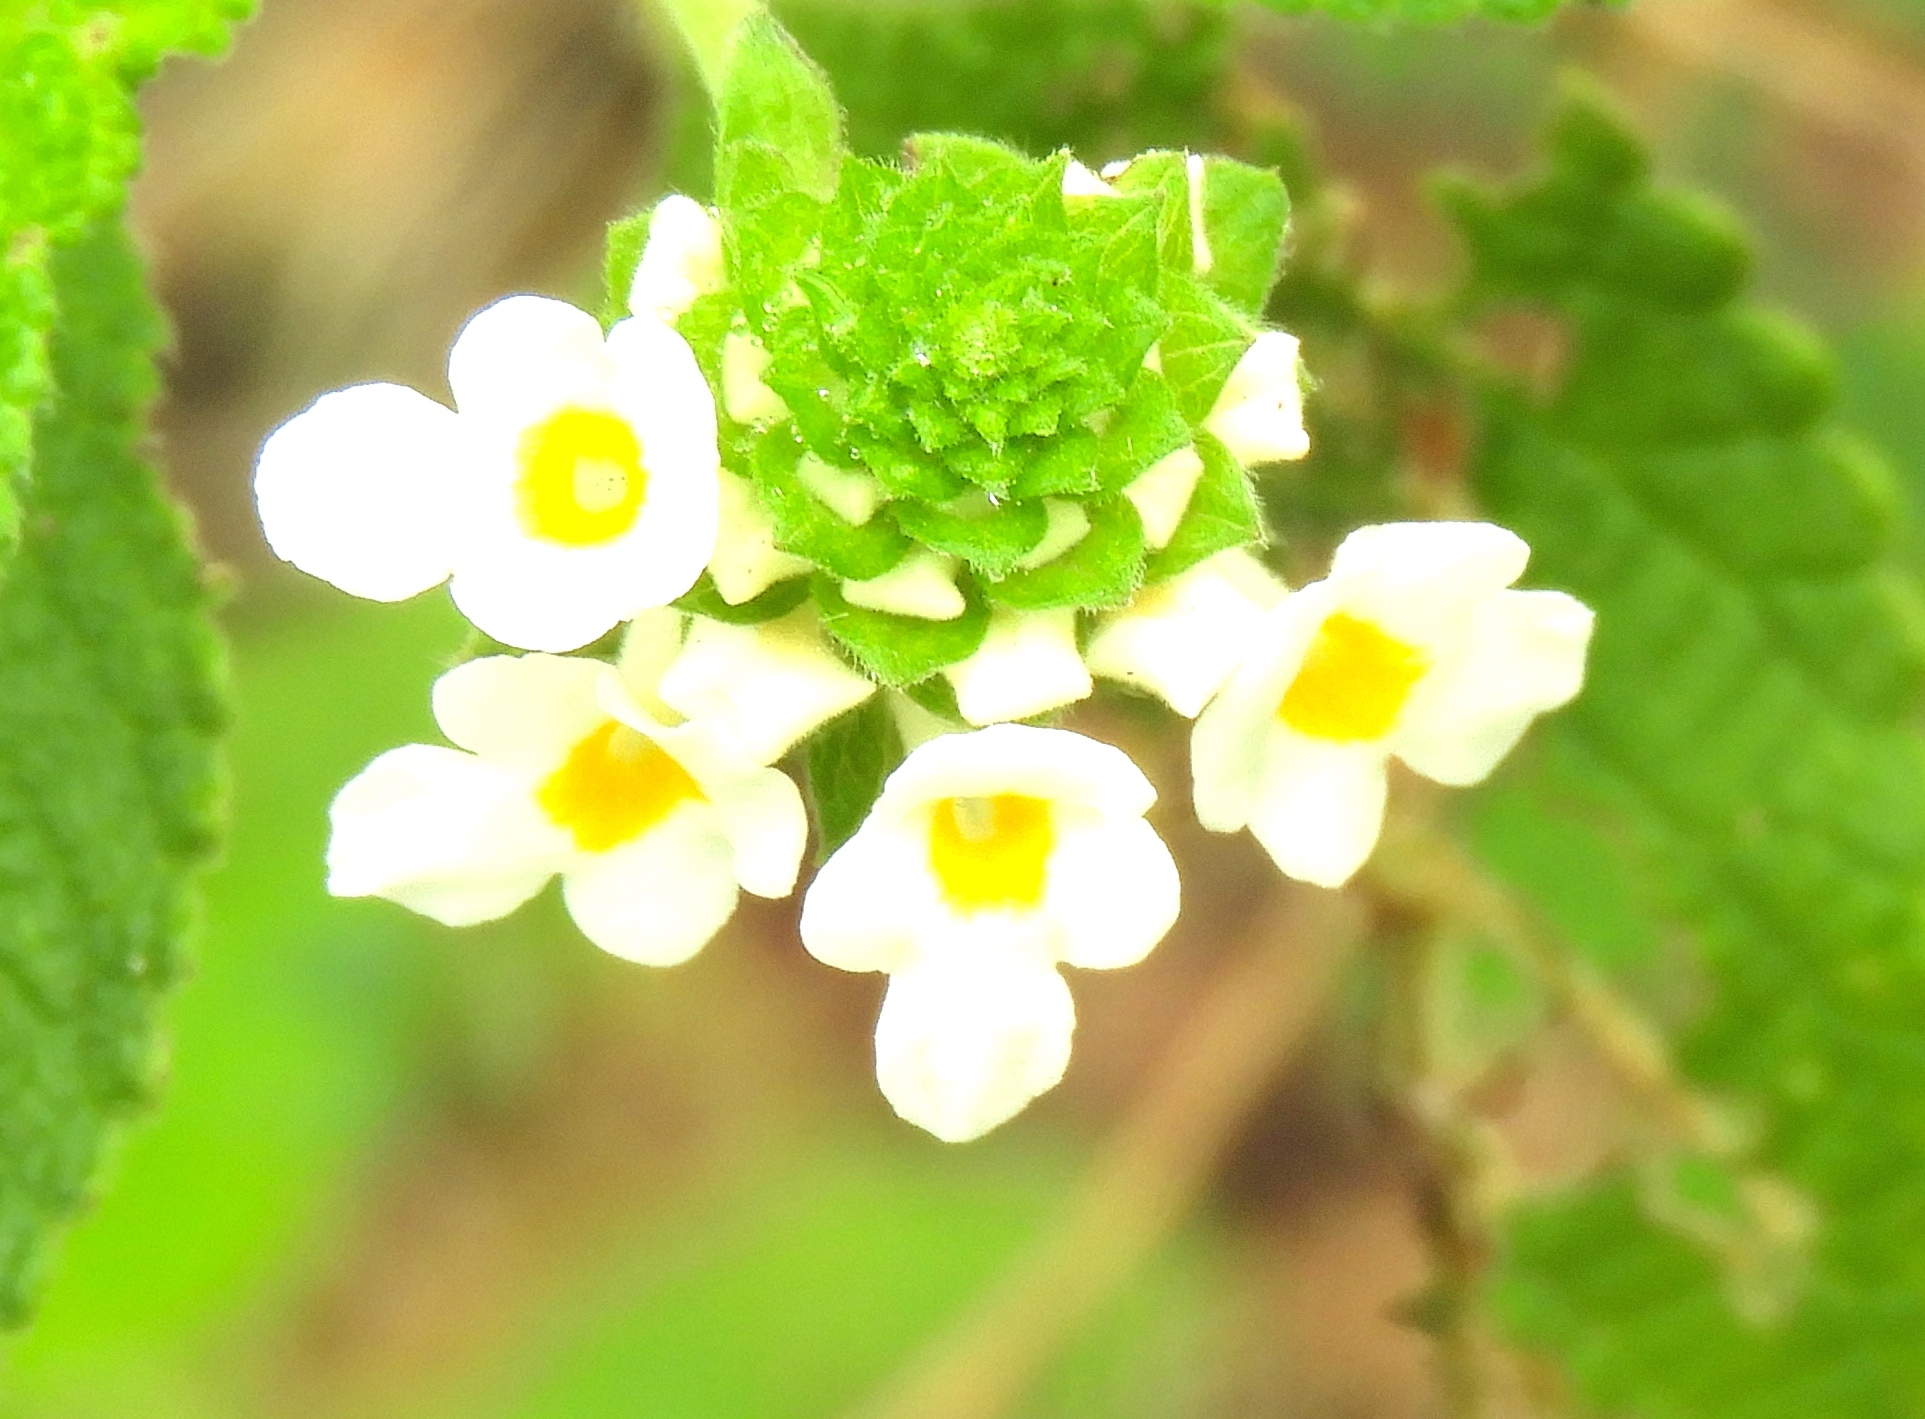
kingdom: Plantae
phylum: Tracheophyta
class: Magnoliopsida
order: Lamiales
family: Verbenaceae
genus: Lantana
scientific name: Lantana velutina
